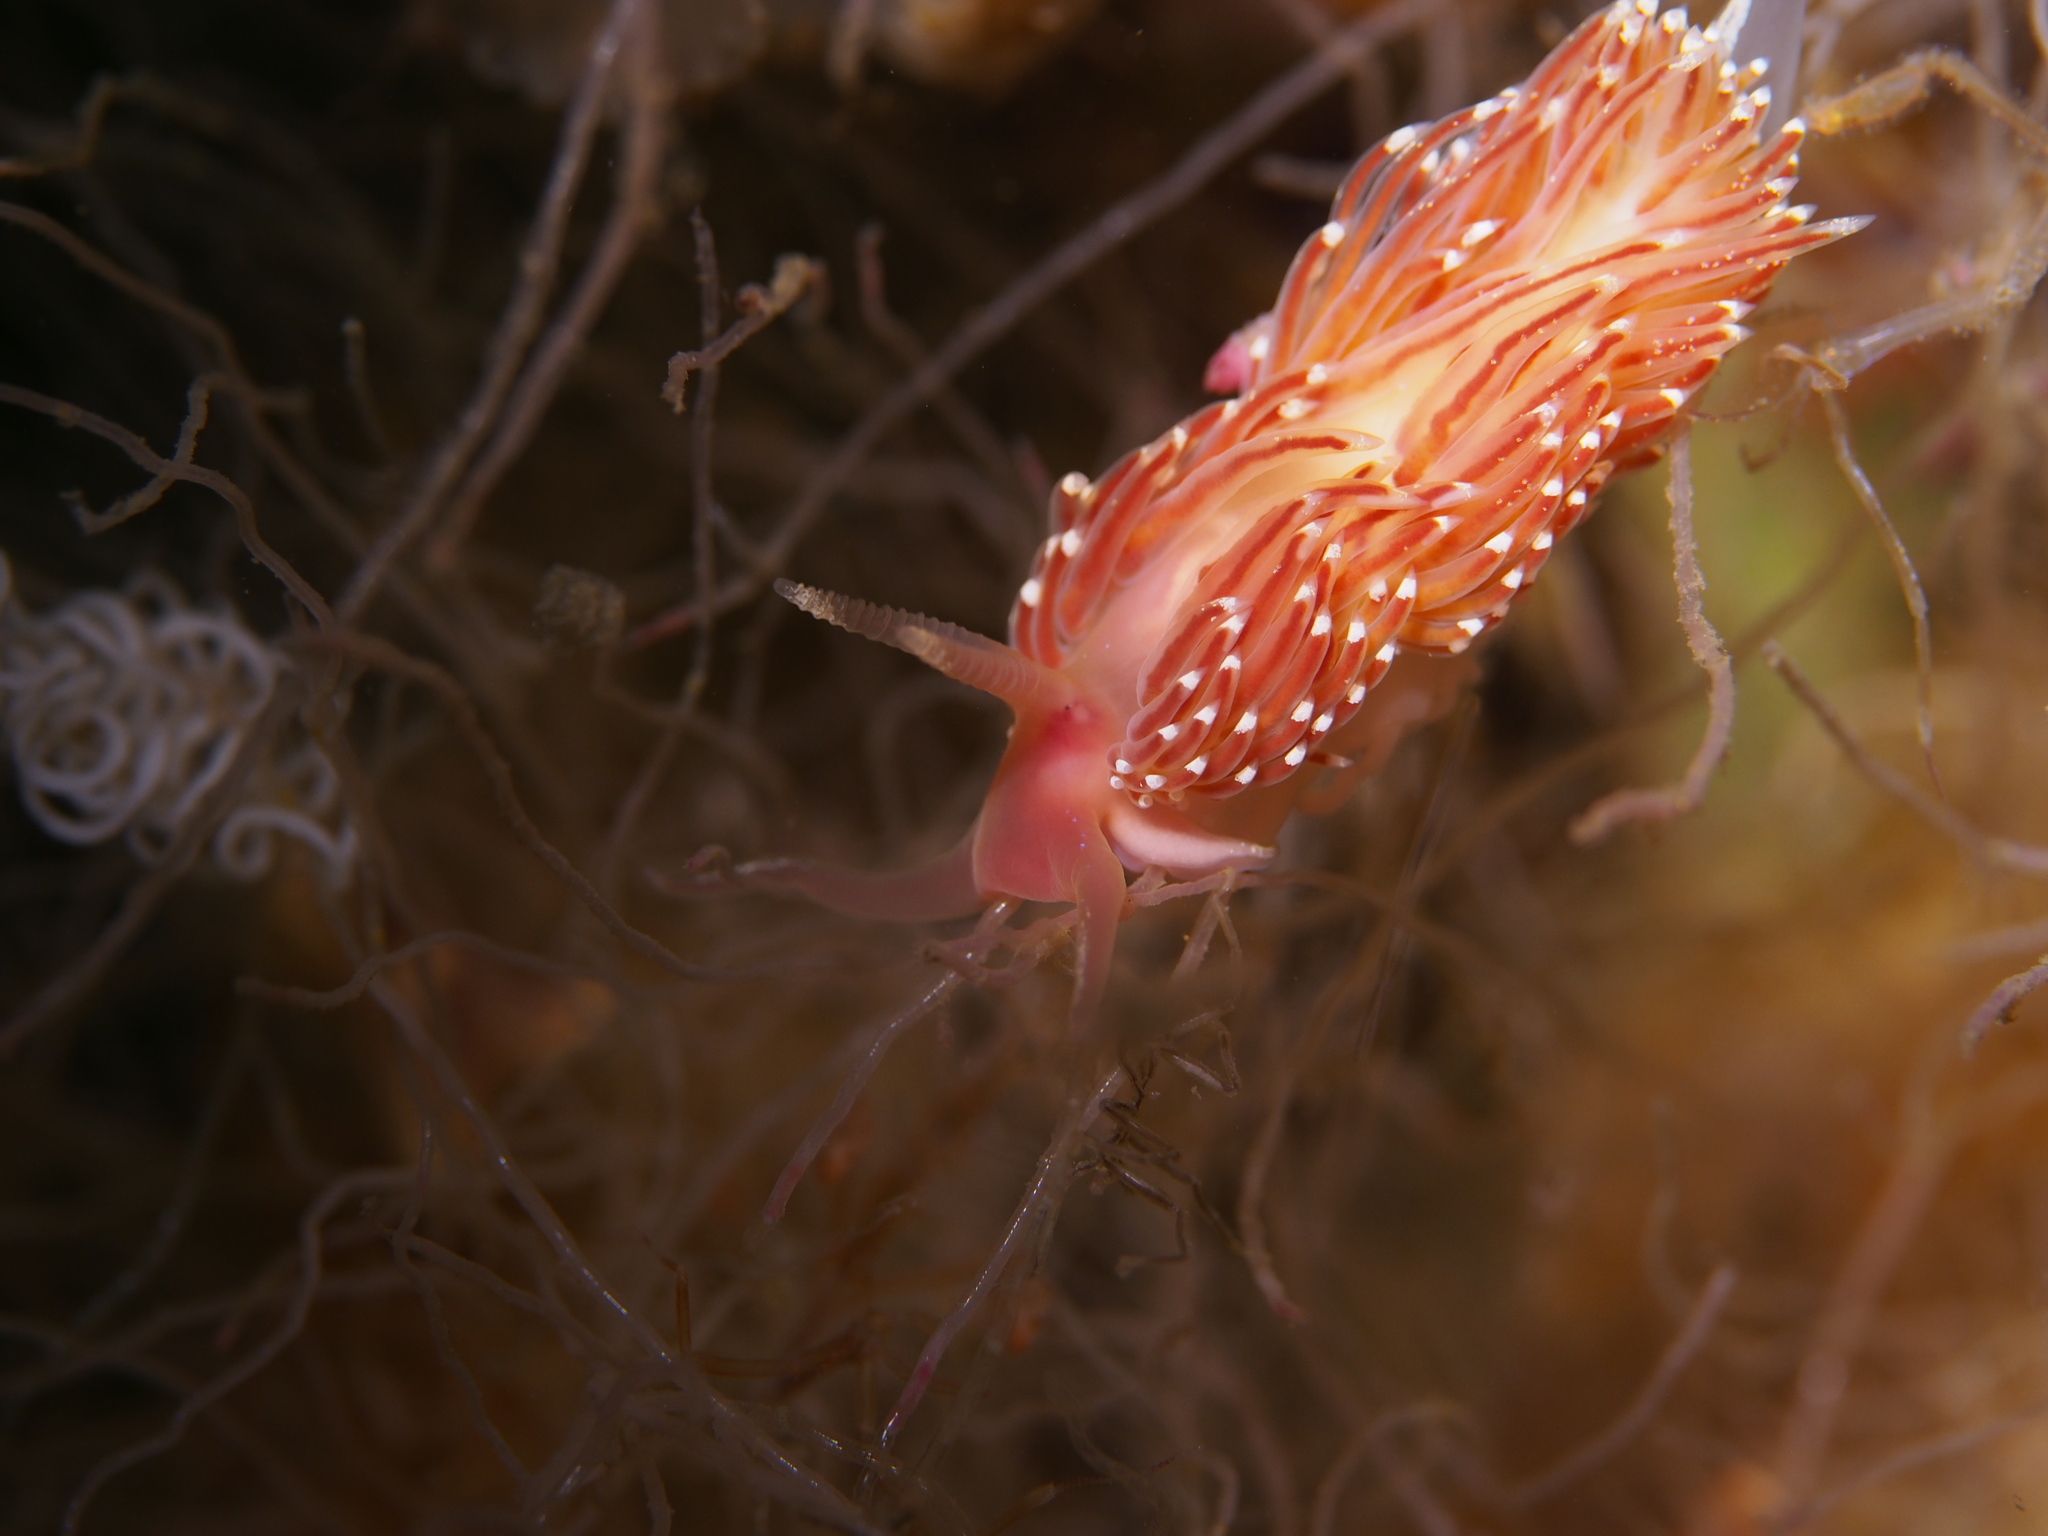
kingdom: Animalia
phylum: Mollusca
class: Gastropoda
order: Nudibranchia
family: Facelinidae
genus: Facelina
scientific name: Facelina bostoniensis
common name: Boston facelina
